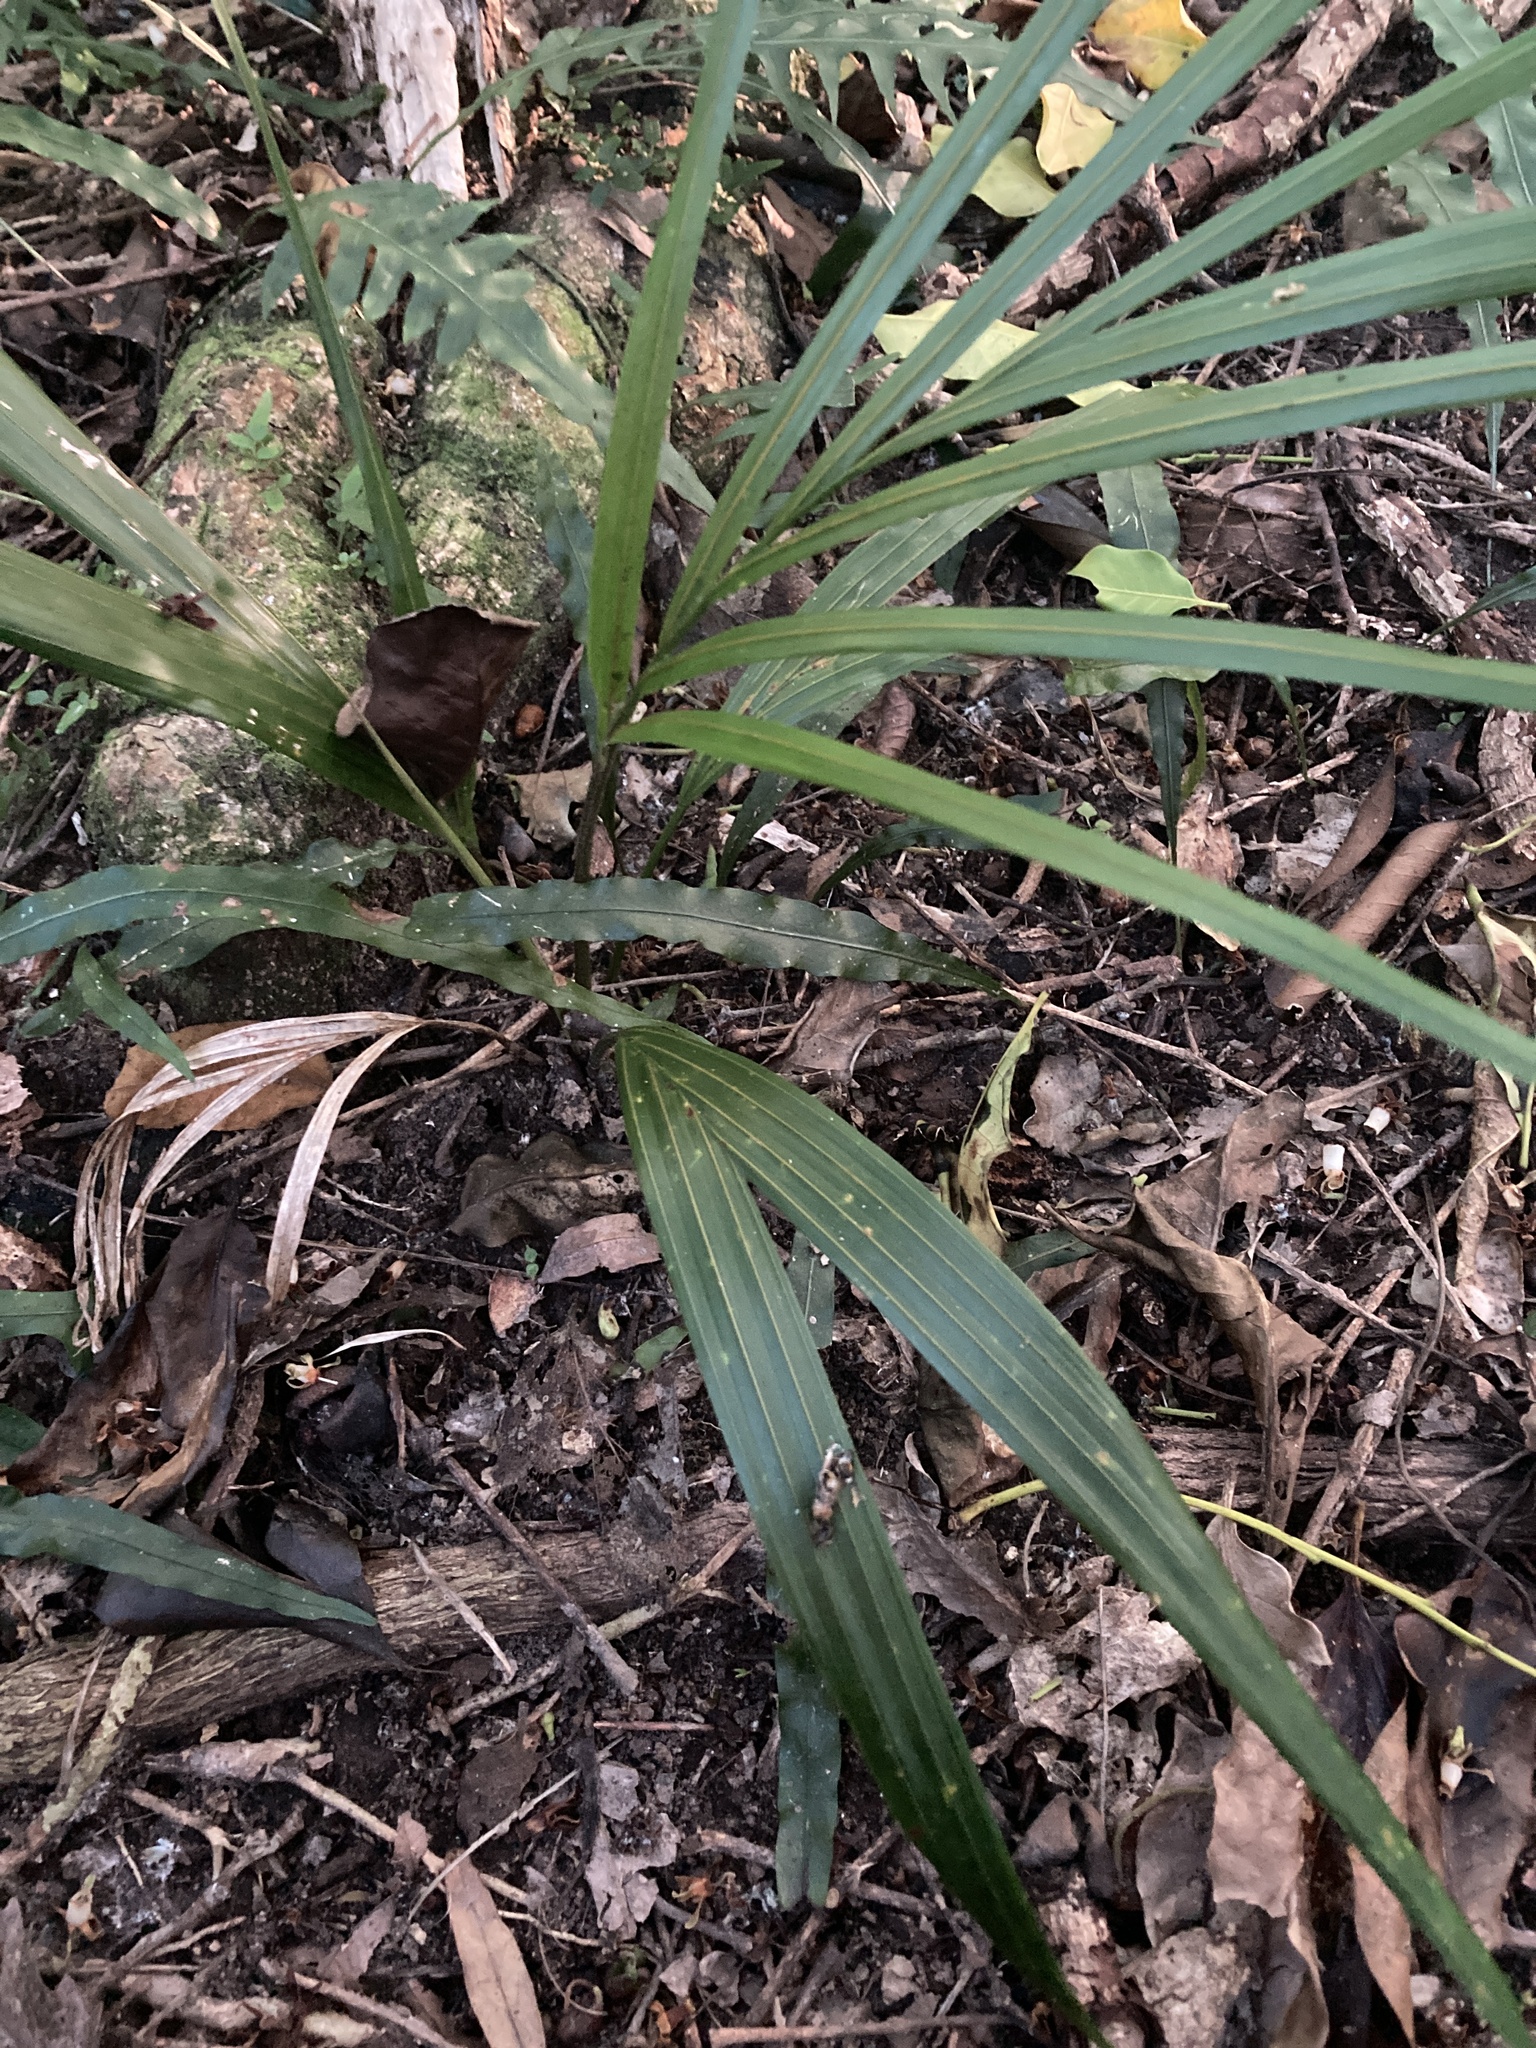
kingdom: Plantae
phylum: Tracheophyta
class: Liliopsida
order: Arecales
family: Arecaceae
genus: Rhopalostylis
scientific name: Rhopalostylis sapida
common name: Feather-duster palm
